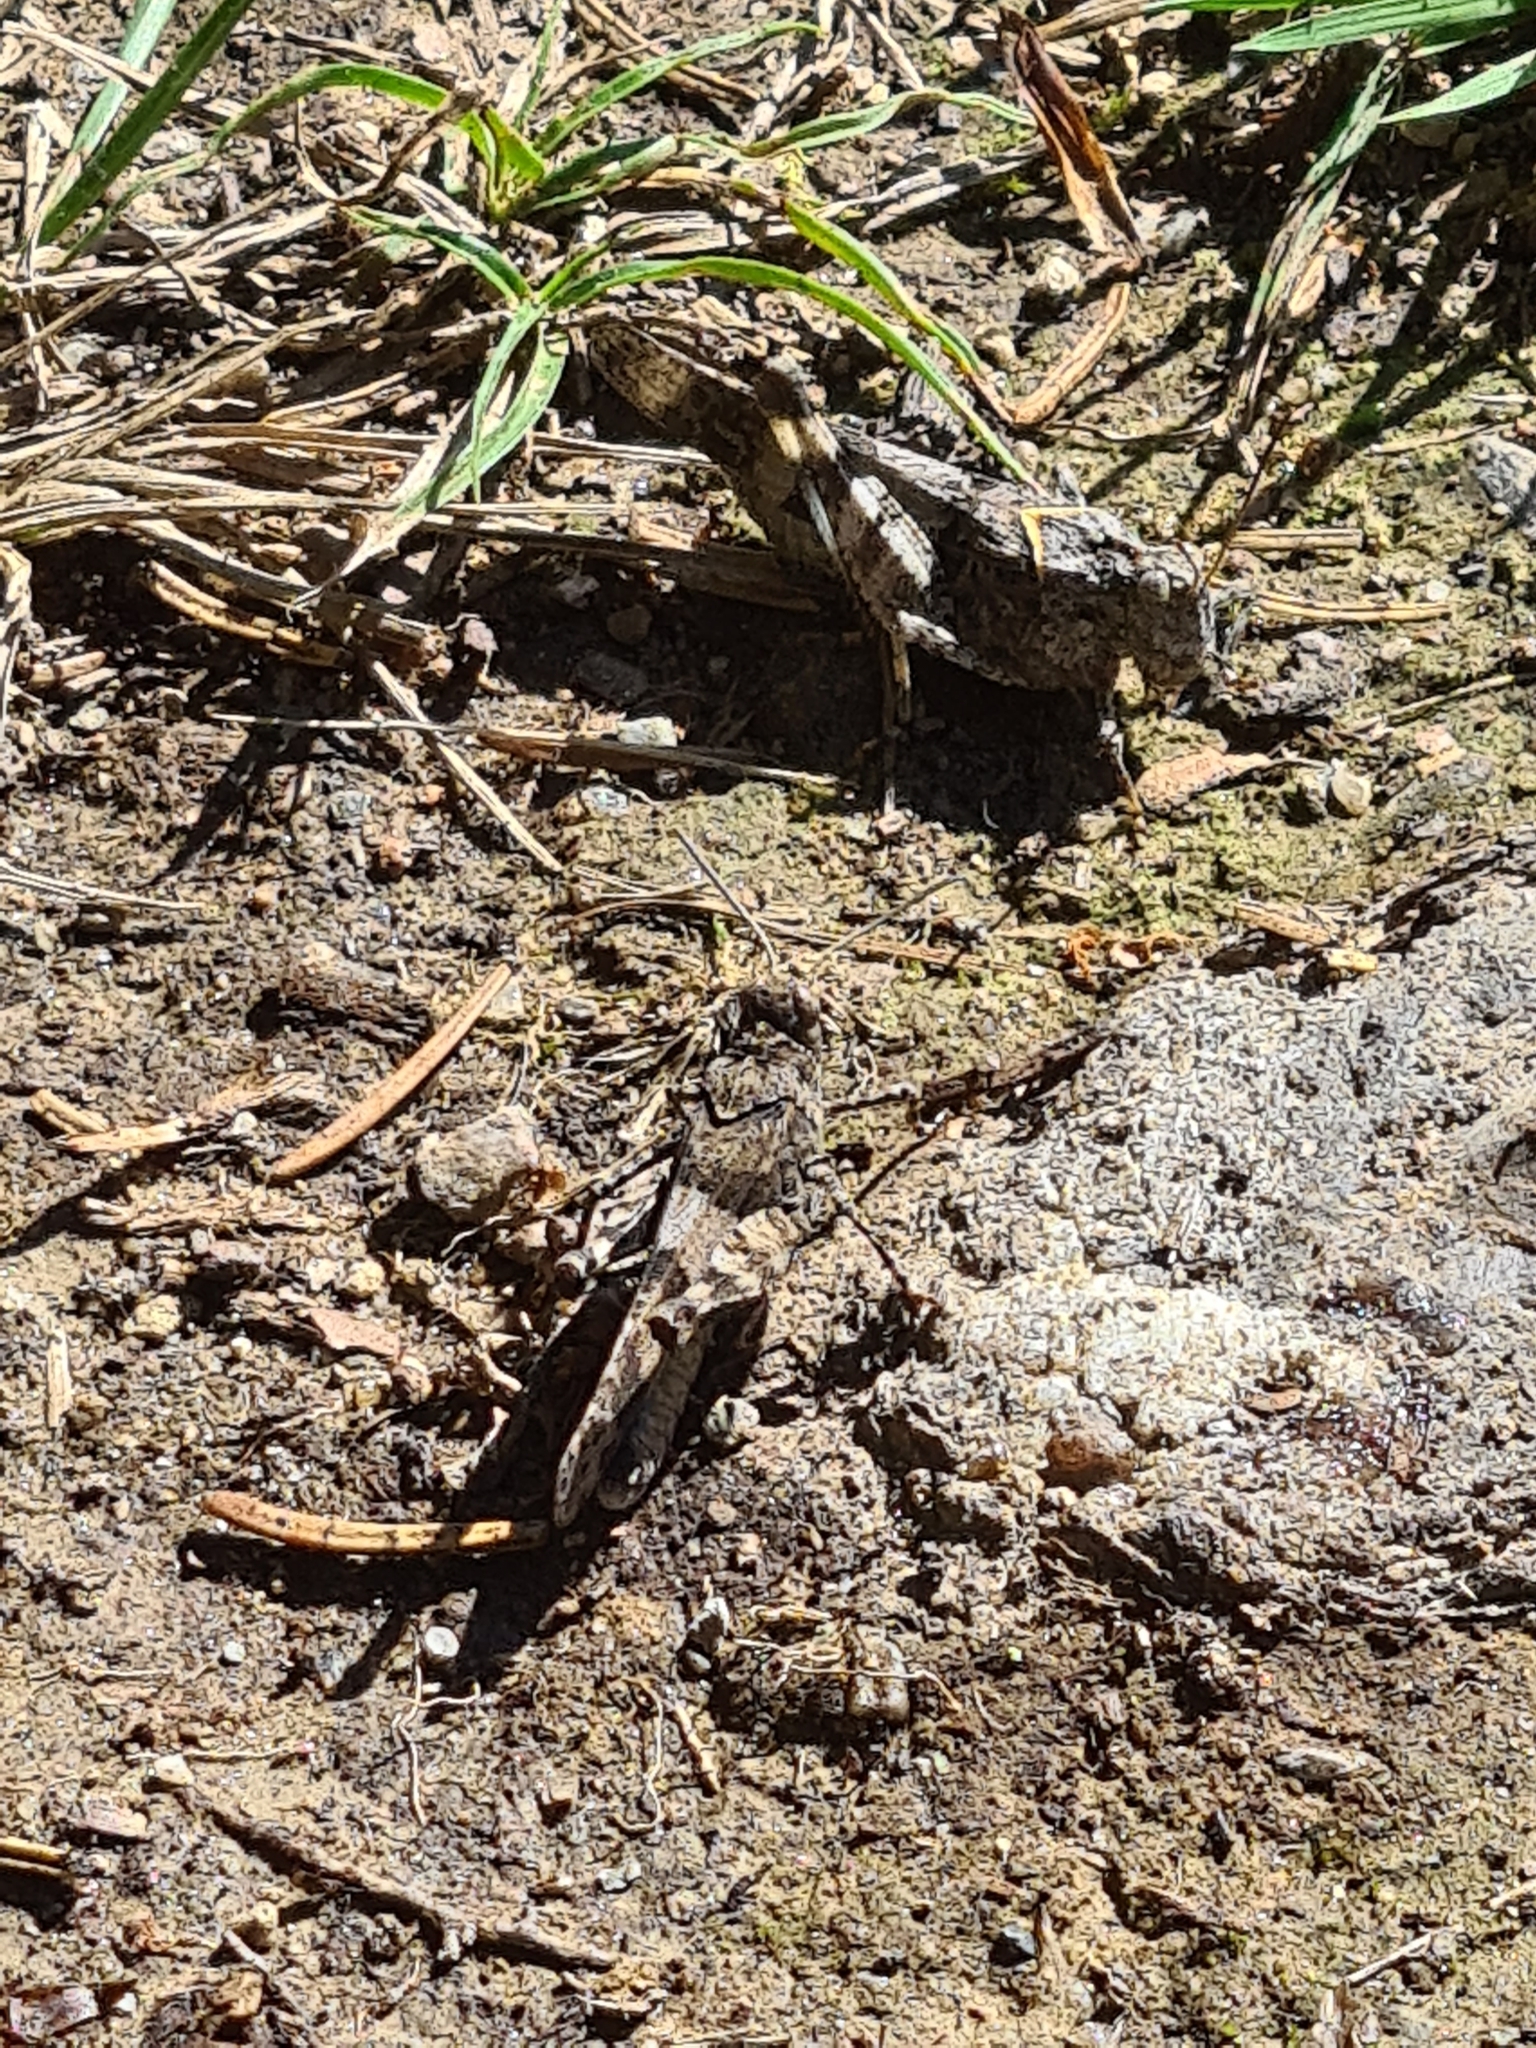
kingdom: Animalia
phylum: Arthropoda
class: Insecta
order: Orthoptera
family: Acrididae
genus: Oedipoda
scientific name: Oedipoda caerulescens
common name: Blue-winged grasshopper
